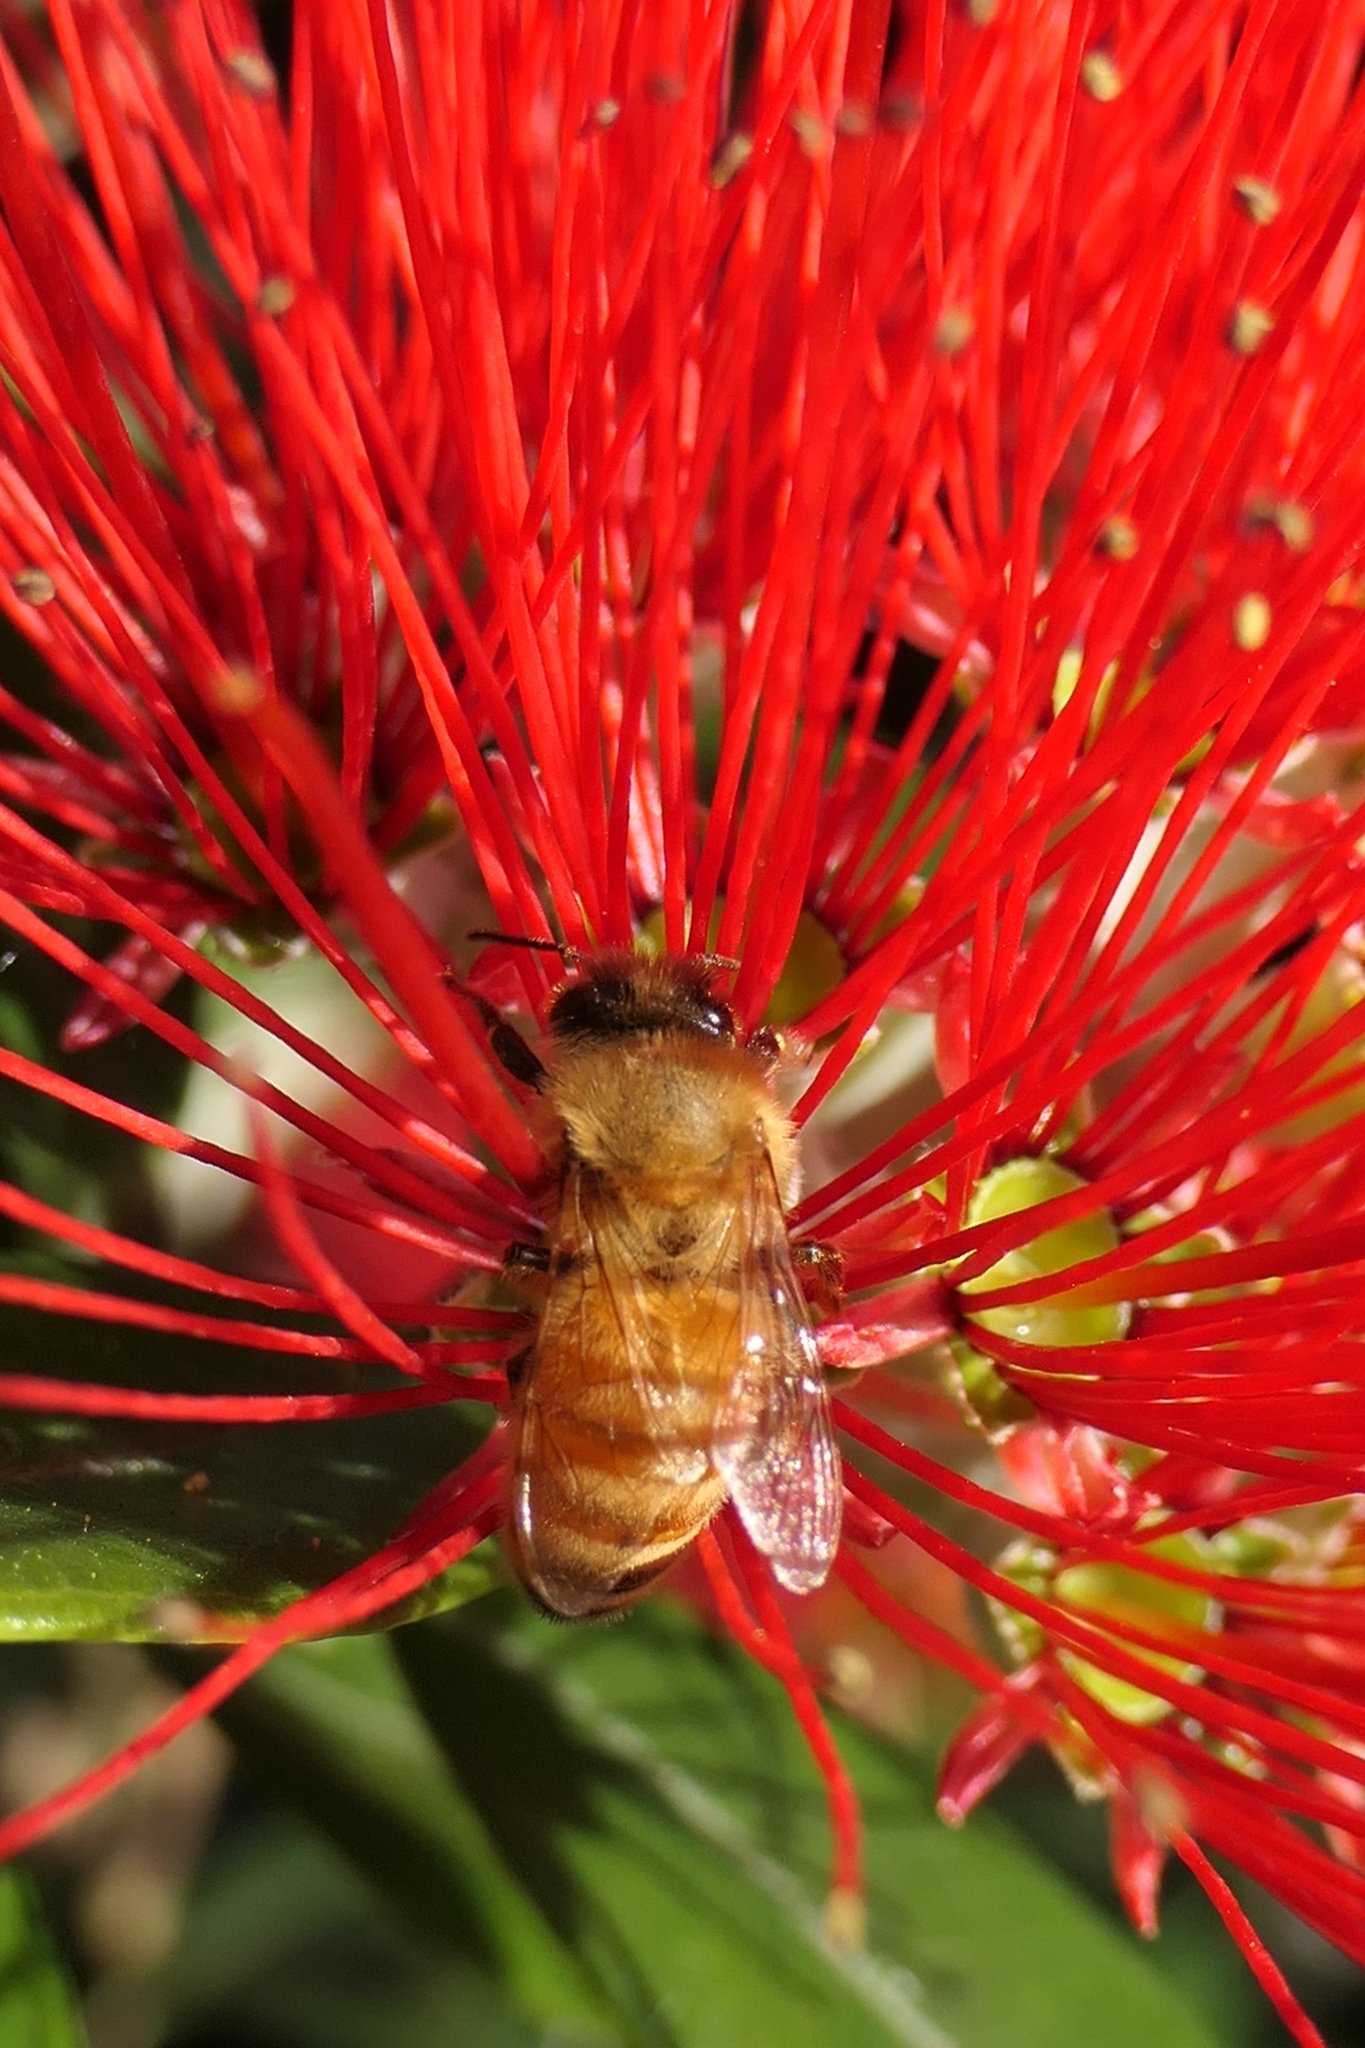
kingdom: Animalia
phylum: Arthropoda
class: Insecta
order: Hymenoptera
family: Apidae
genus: Apis
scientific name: Apis mellifera
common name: Honey bee
